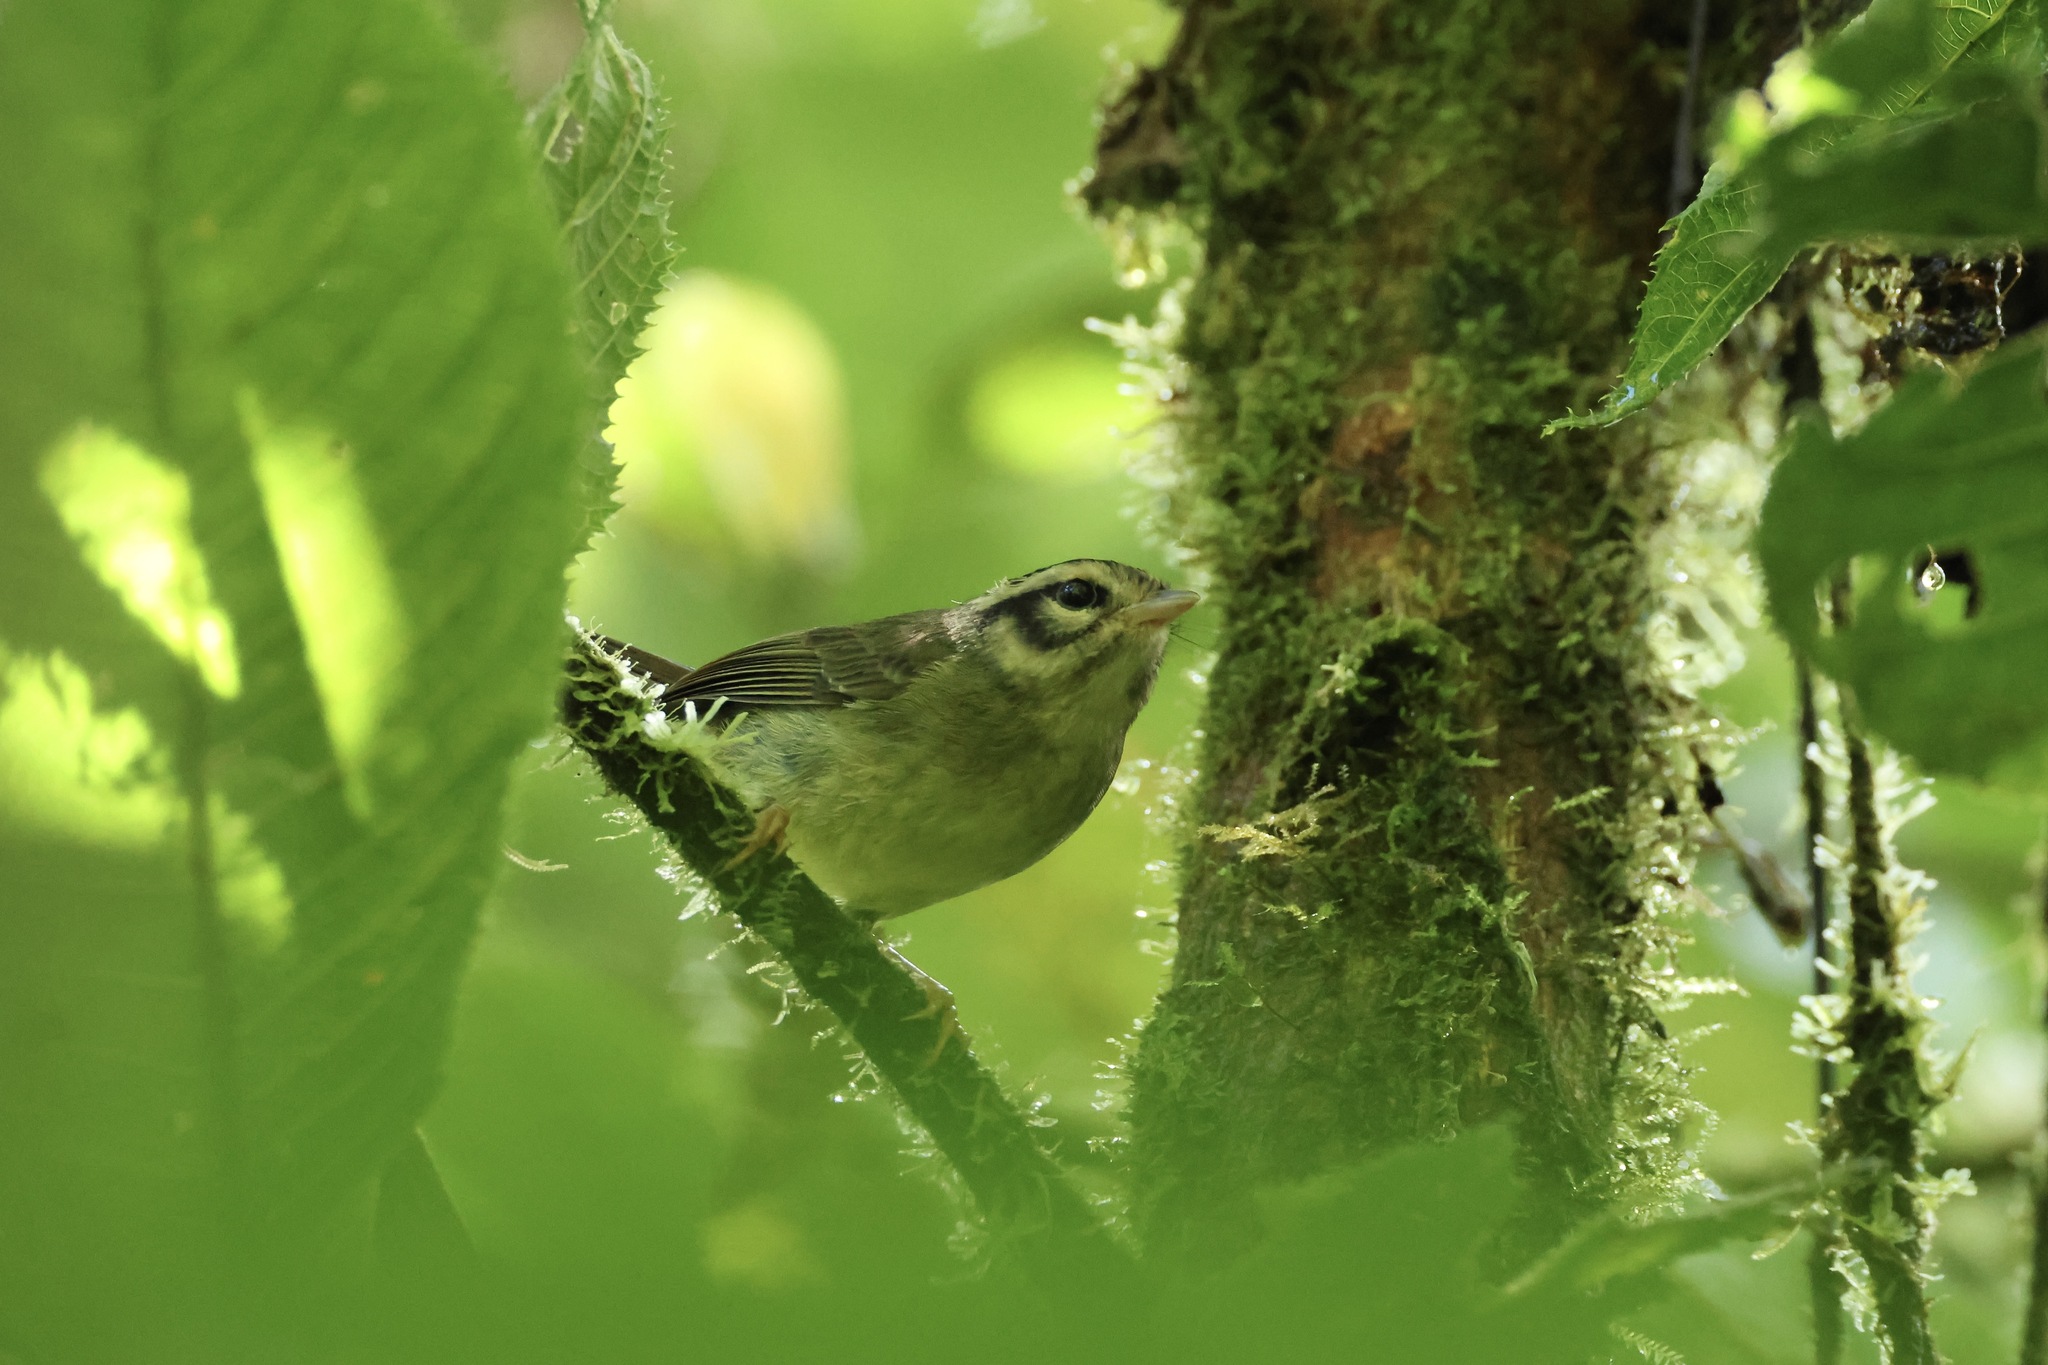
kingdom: Animalia
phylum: Chordata
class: Aves
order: Passeriformes
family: Parulidae
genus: Basileuterus
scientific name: Basileuterus melanotis
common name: Black-eared warbler
